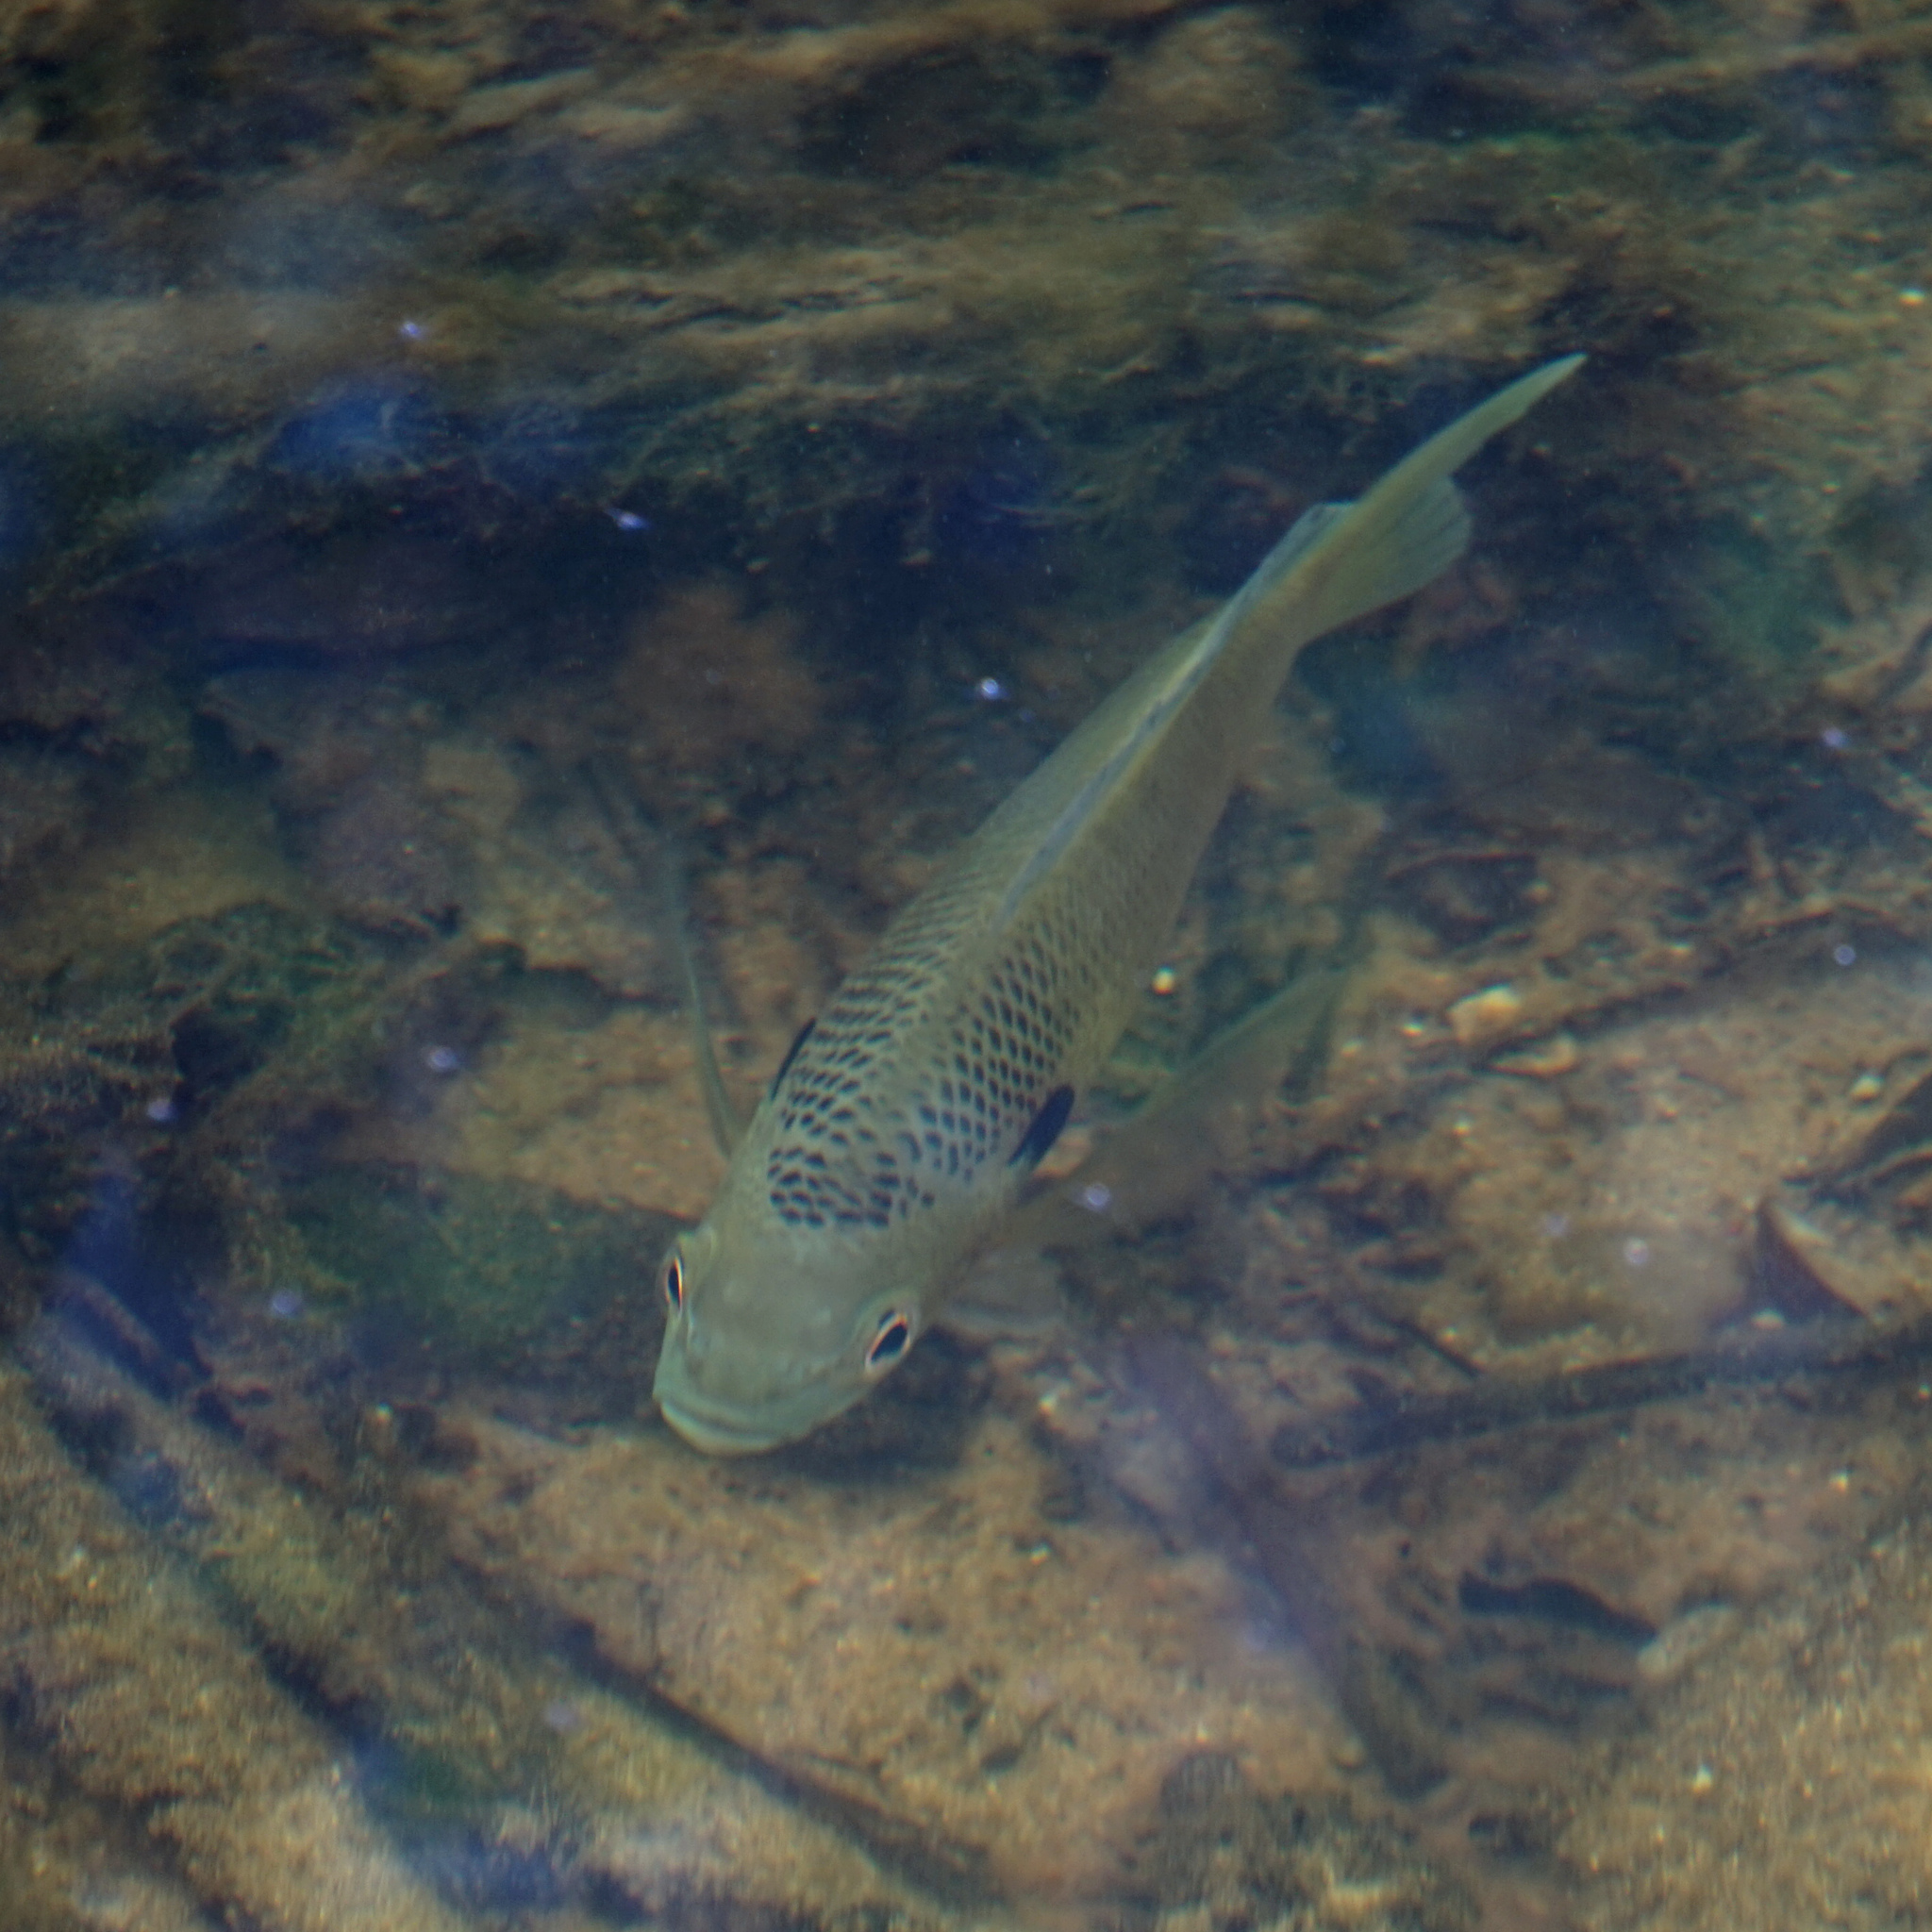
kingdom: Animalia
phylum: Chordata
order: Perciformes
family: Centrarchidae
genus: Lepomis
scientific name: Lepomis macrochirus
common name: Bluegill
